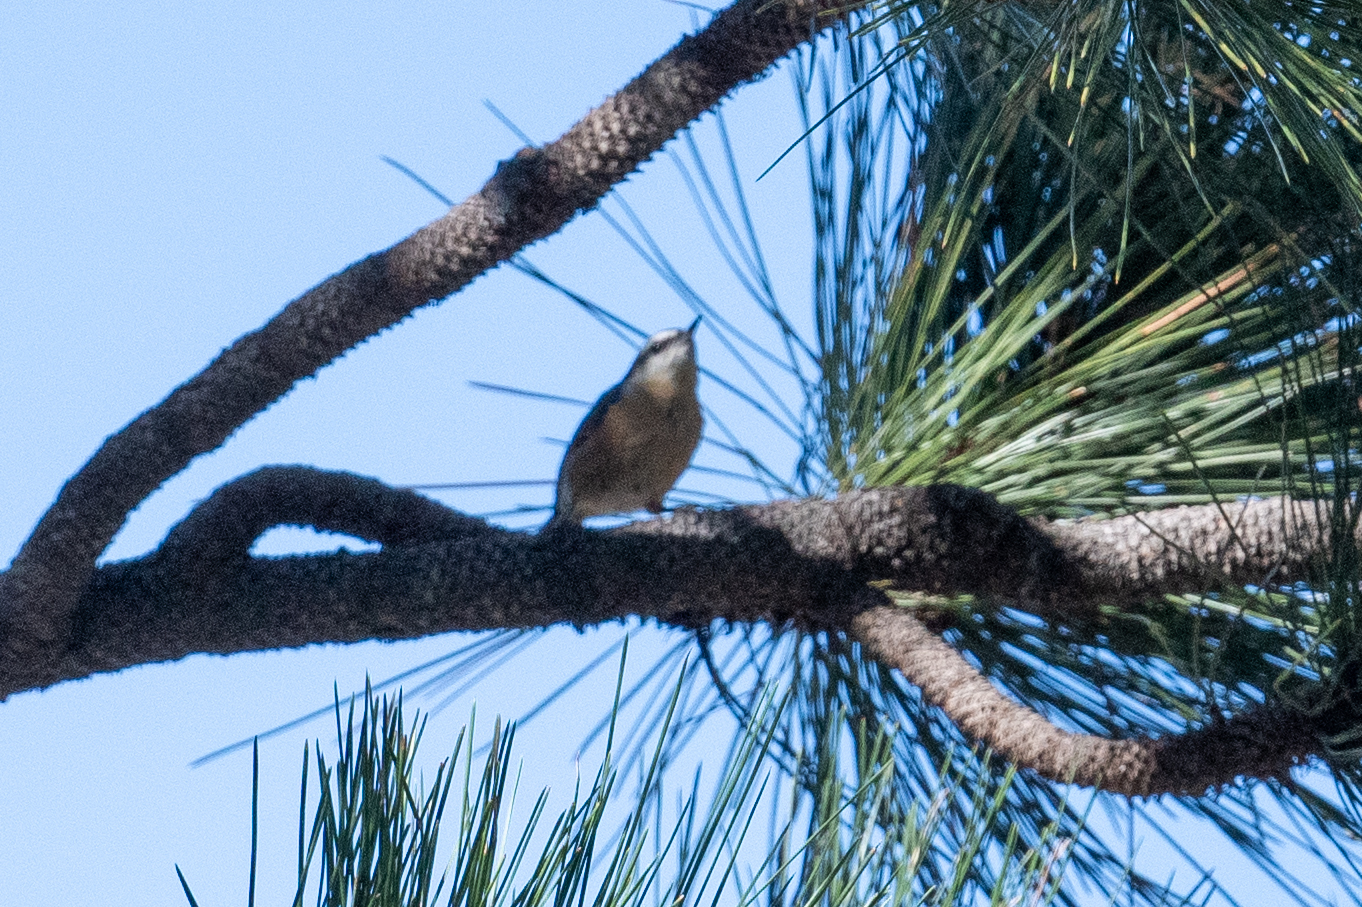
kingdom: Animalia
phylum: Chordata
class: Aves
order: Passeriformes
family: Sittidae
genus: Sitta
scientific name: Sitta canadensis
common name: Red-breasted nuthatch
